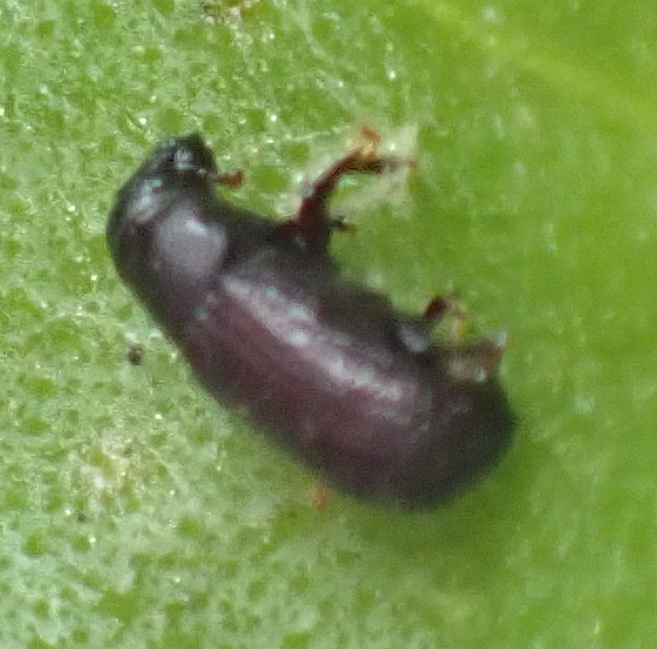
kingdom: Animalia
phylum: Arthropoda
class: Insecta
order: Coleoptera
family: Curculionidae
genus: Stenoscelis
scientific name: Stenoscelis hylastoides
